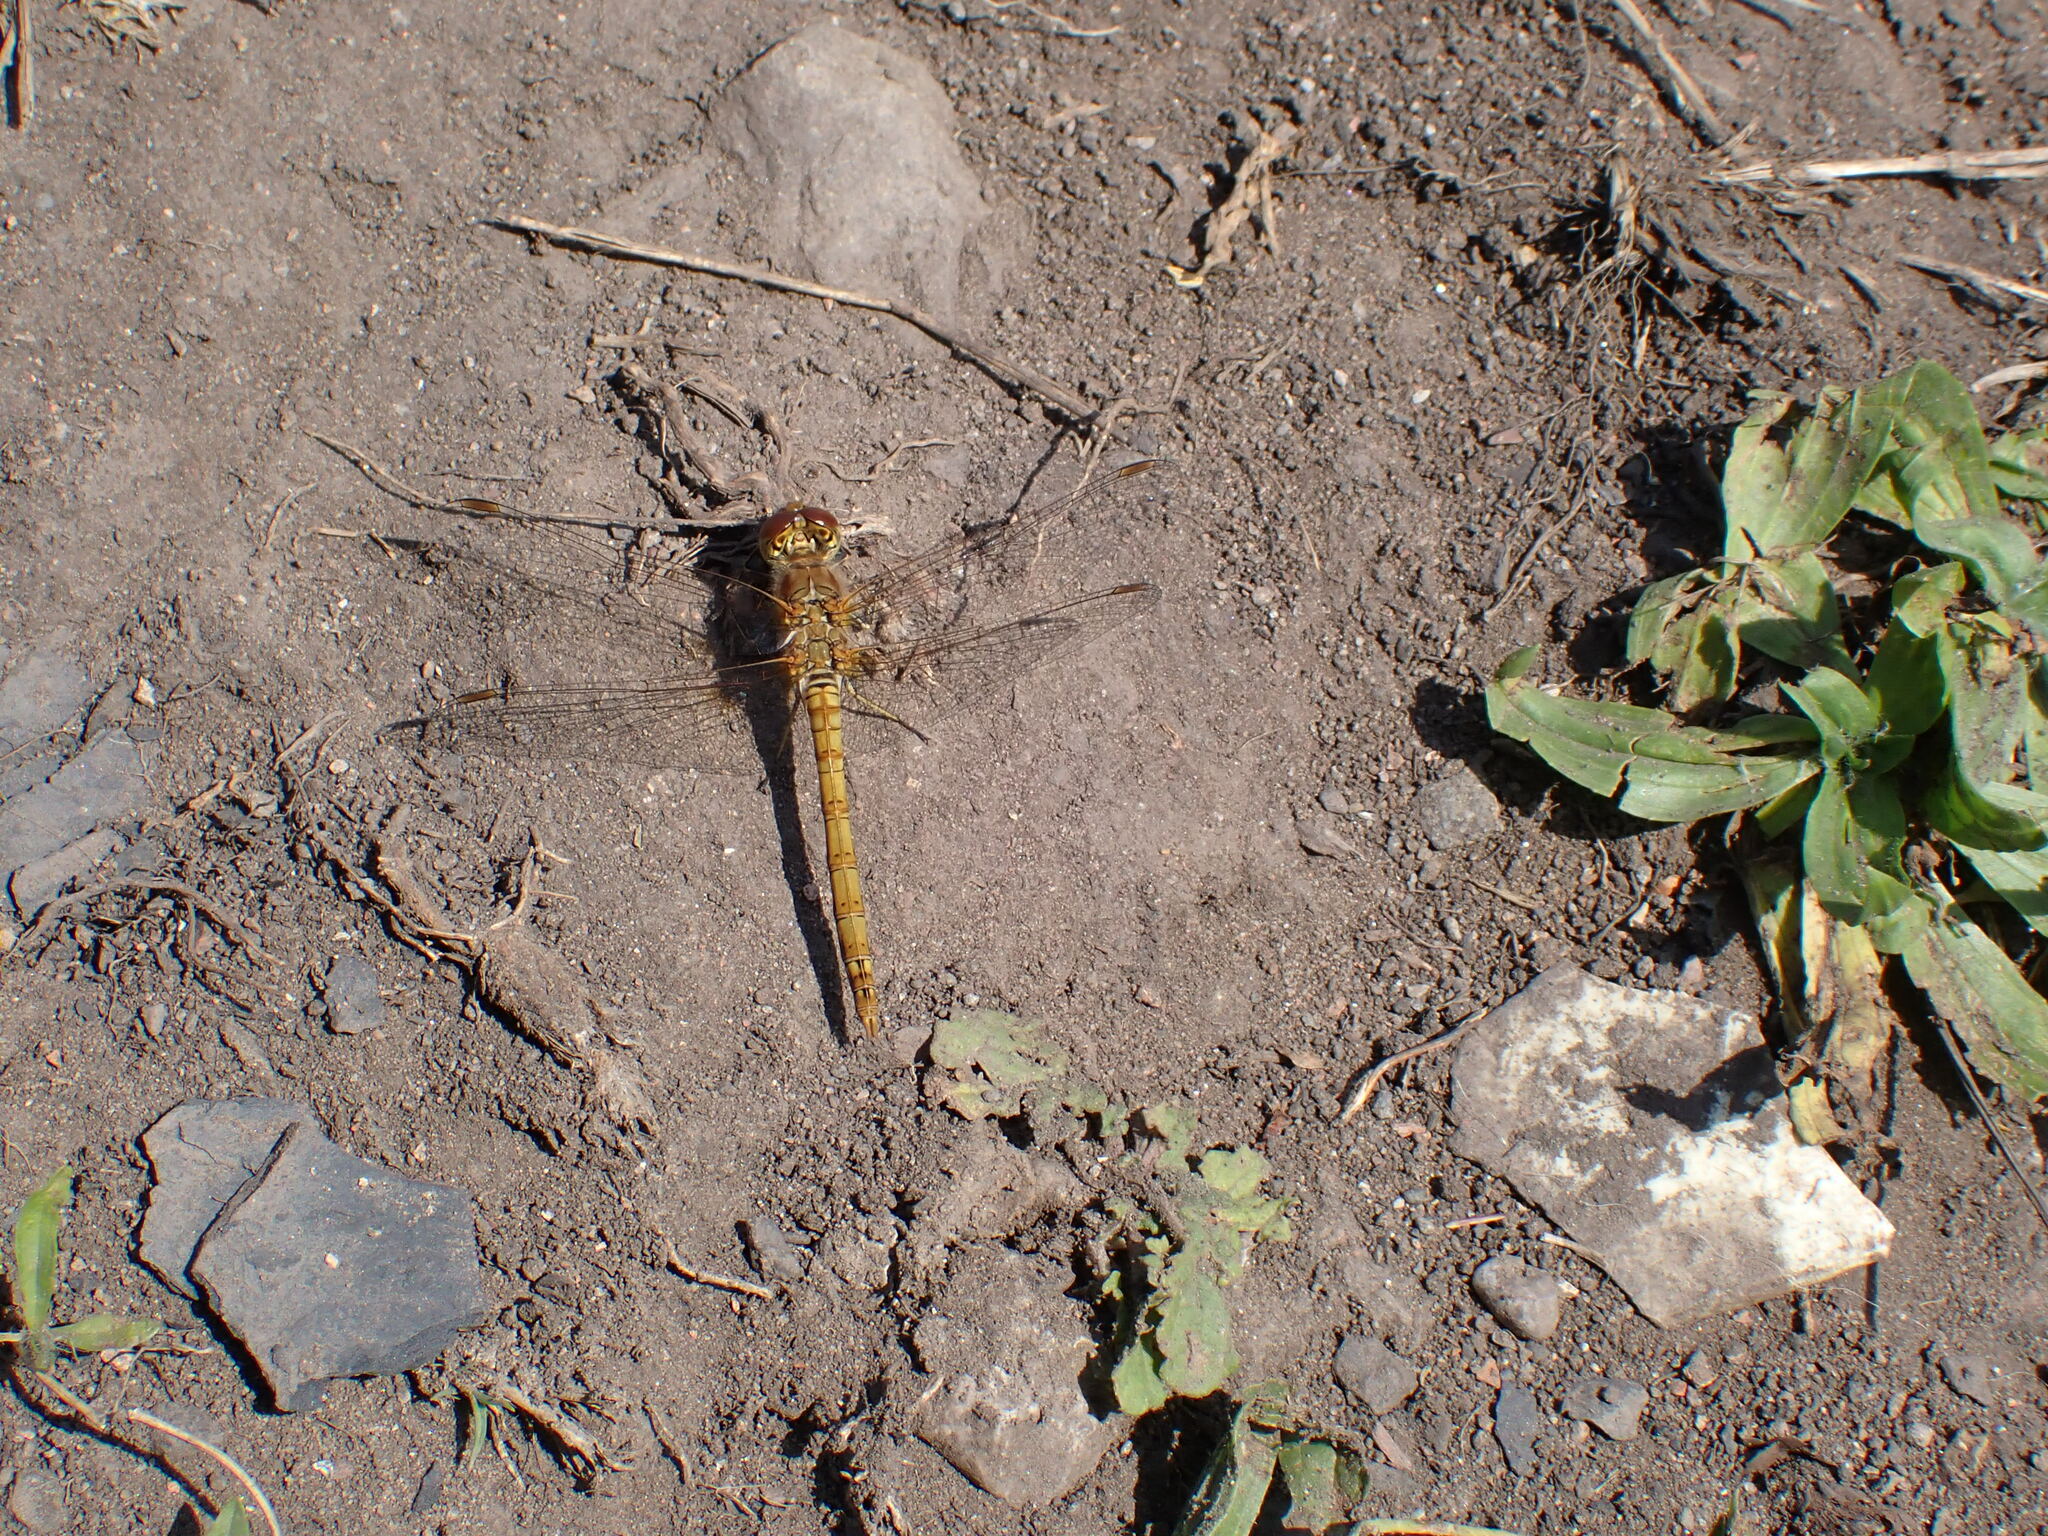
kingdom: Animalia
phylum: Arthropoda
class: Insecta
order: Odonata
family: Libellulidae
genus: Sympetrum
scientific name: Sympetrum striolatum
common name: Common darter
